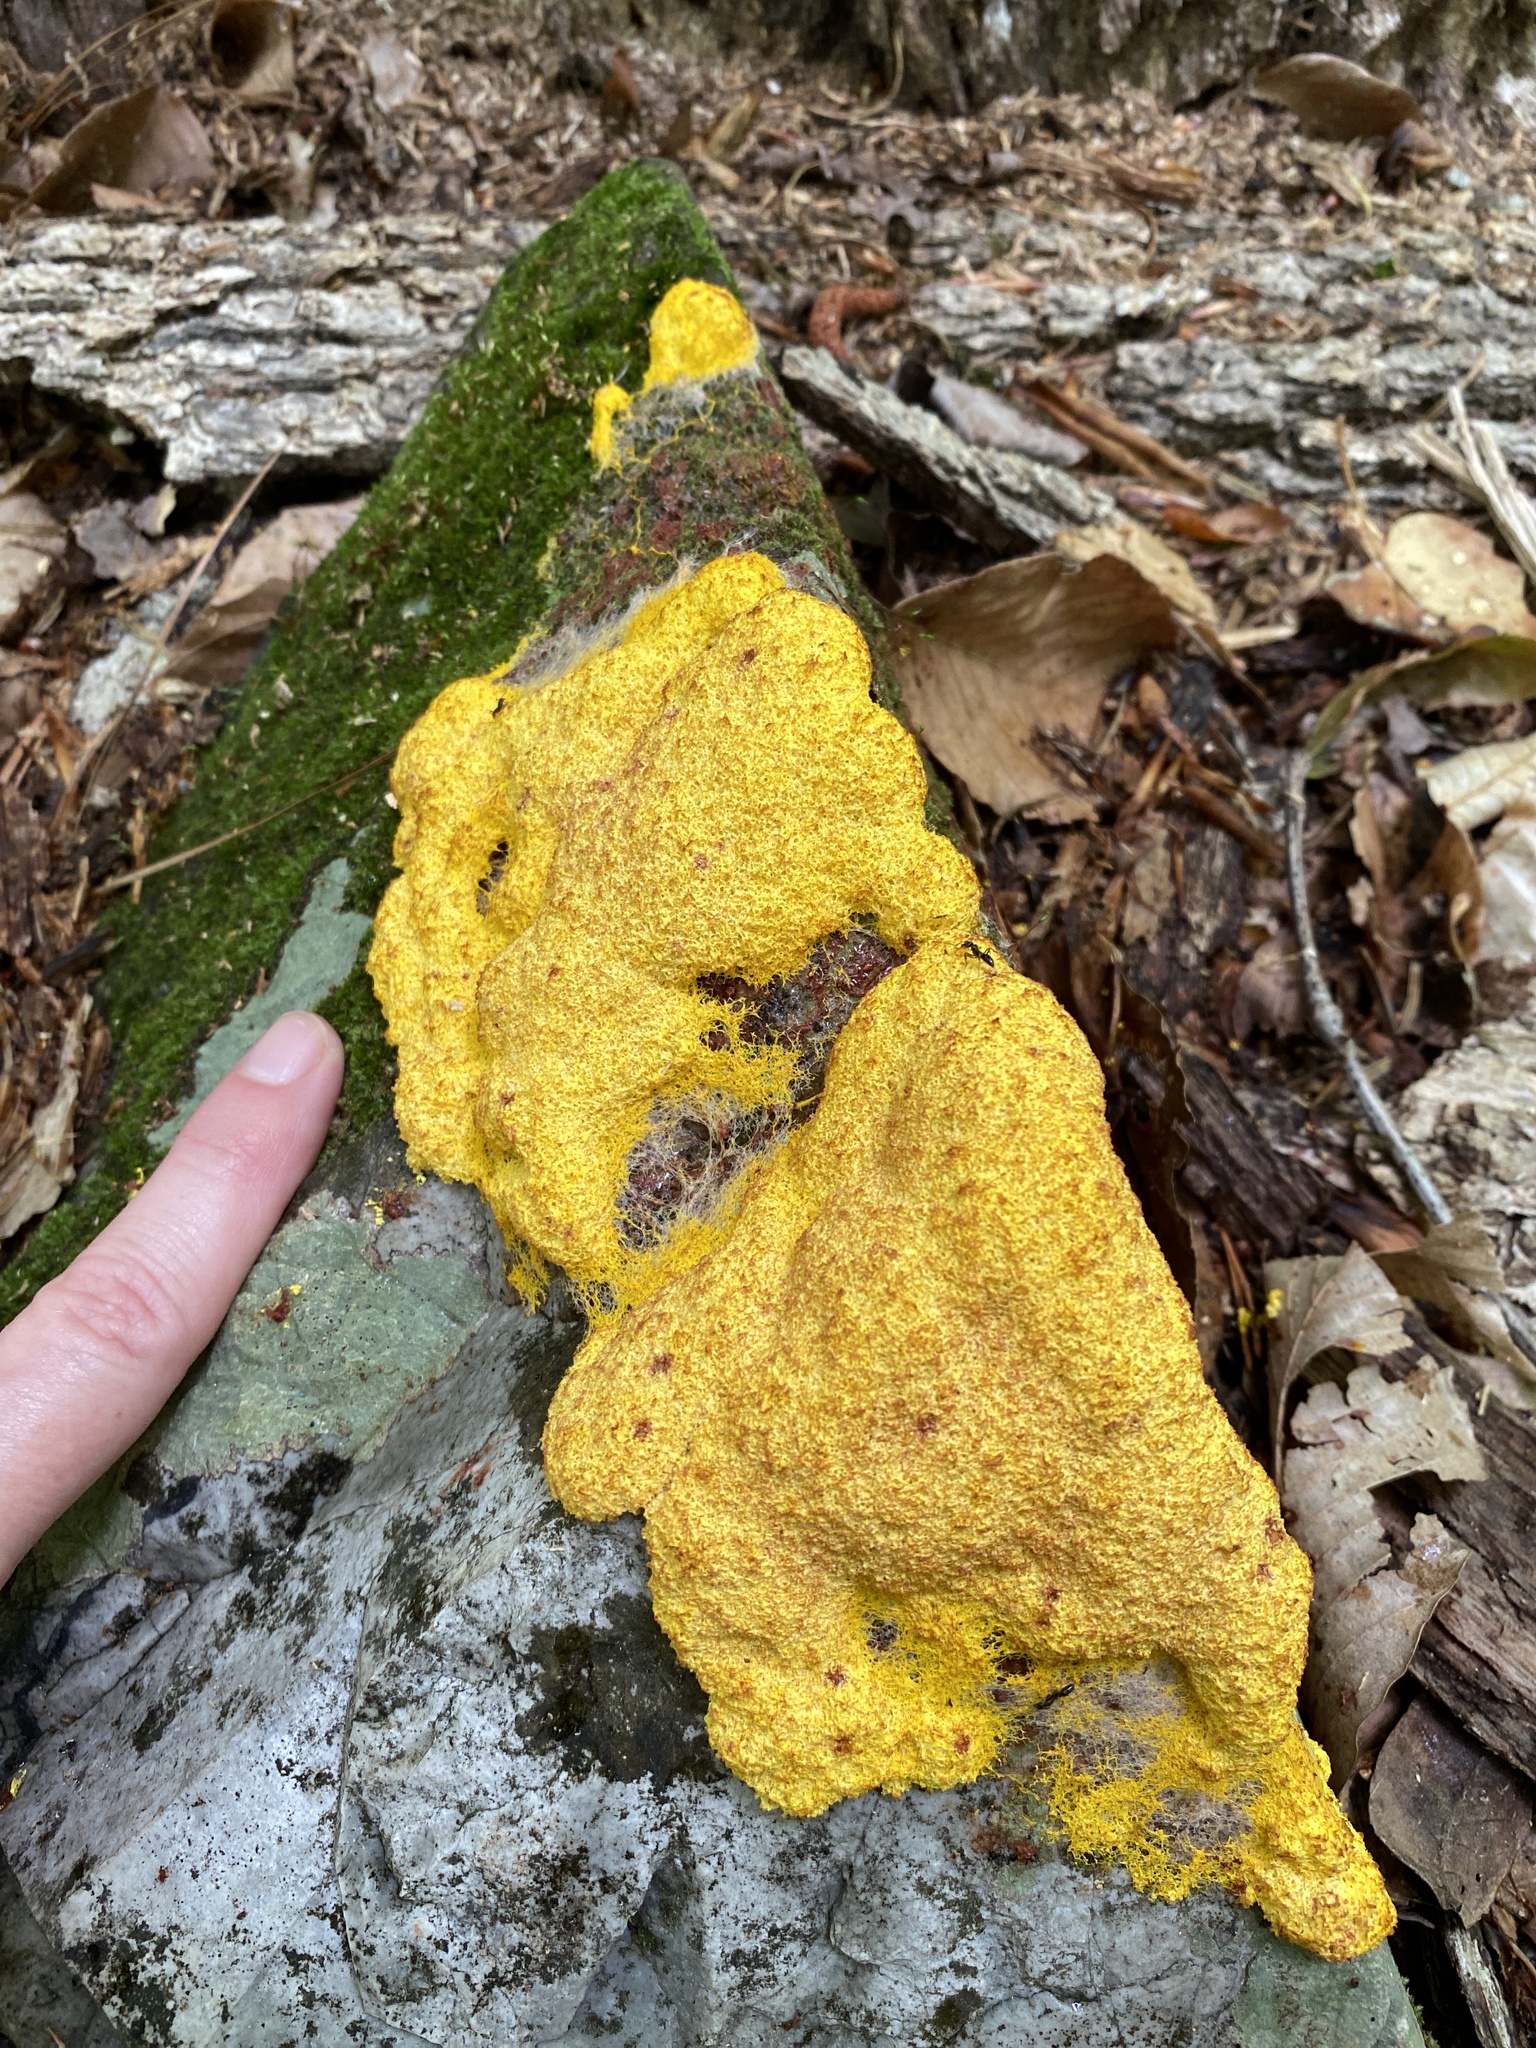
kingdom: Protozoa
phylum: Mycetozoa
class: Myxomycetes
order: Physarales
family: Physaraceae
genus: Fuligo
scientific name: Fuligo septica
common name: Dog vomit slime mold
